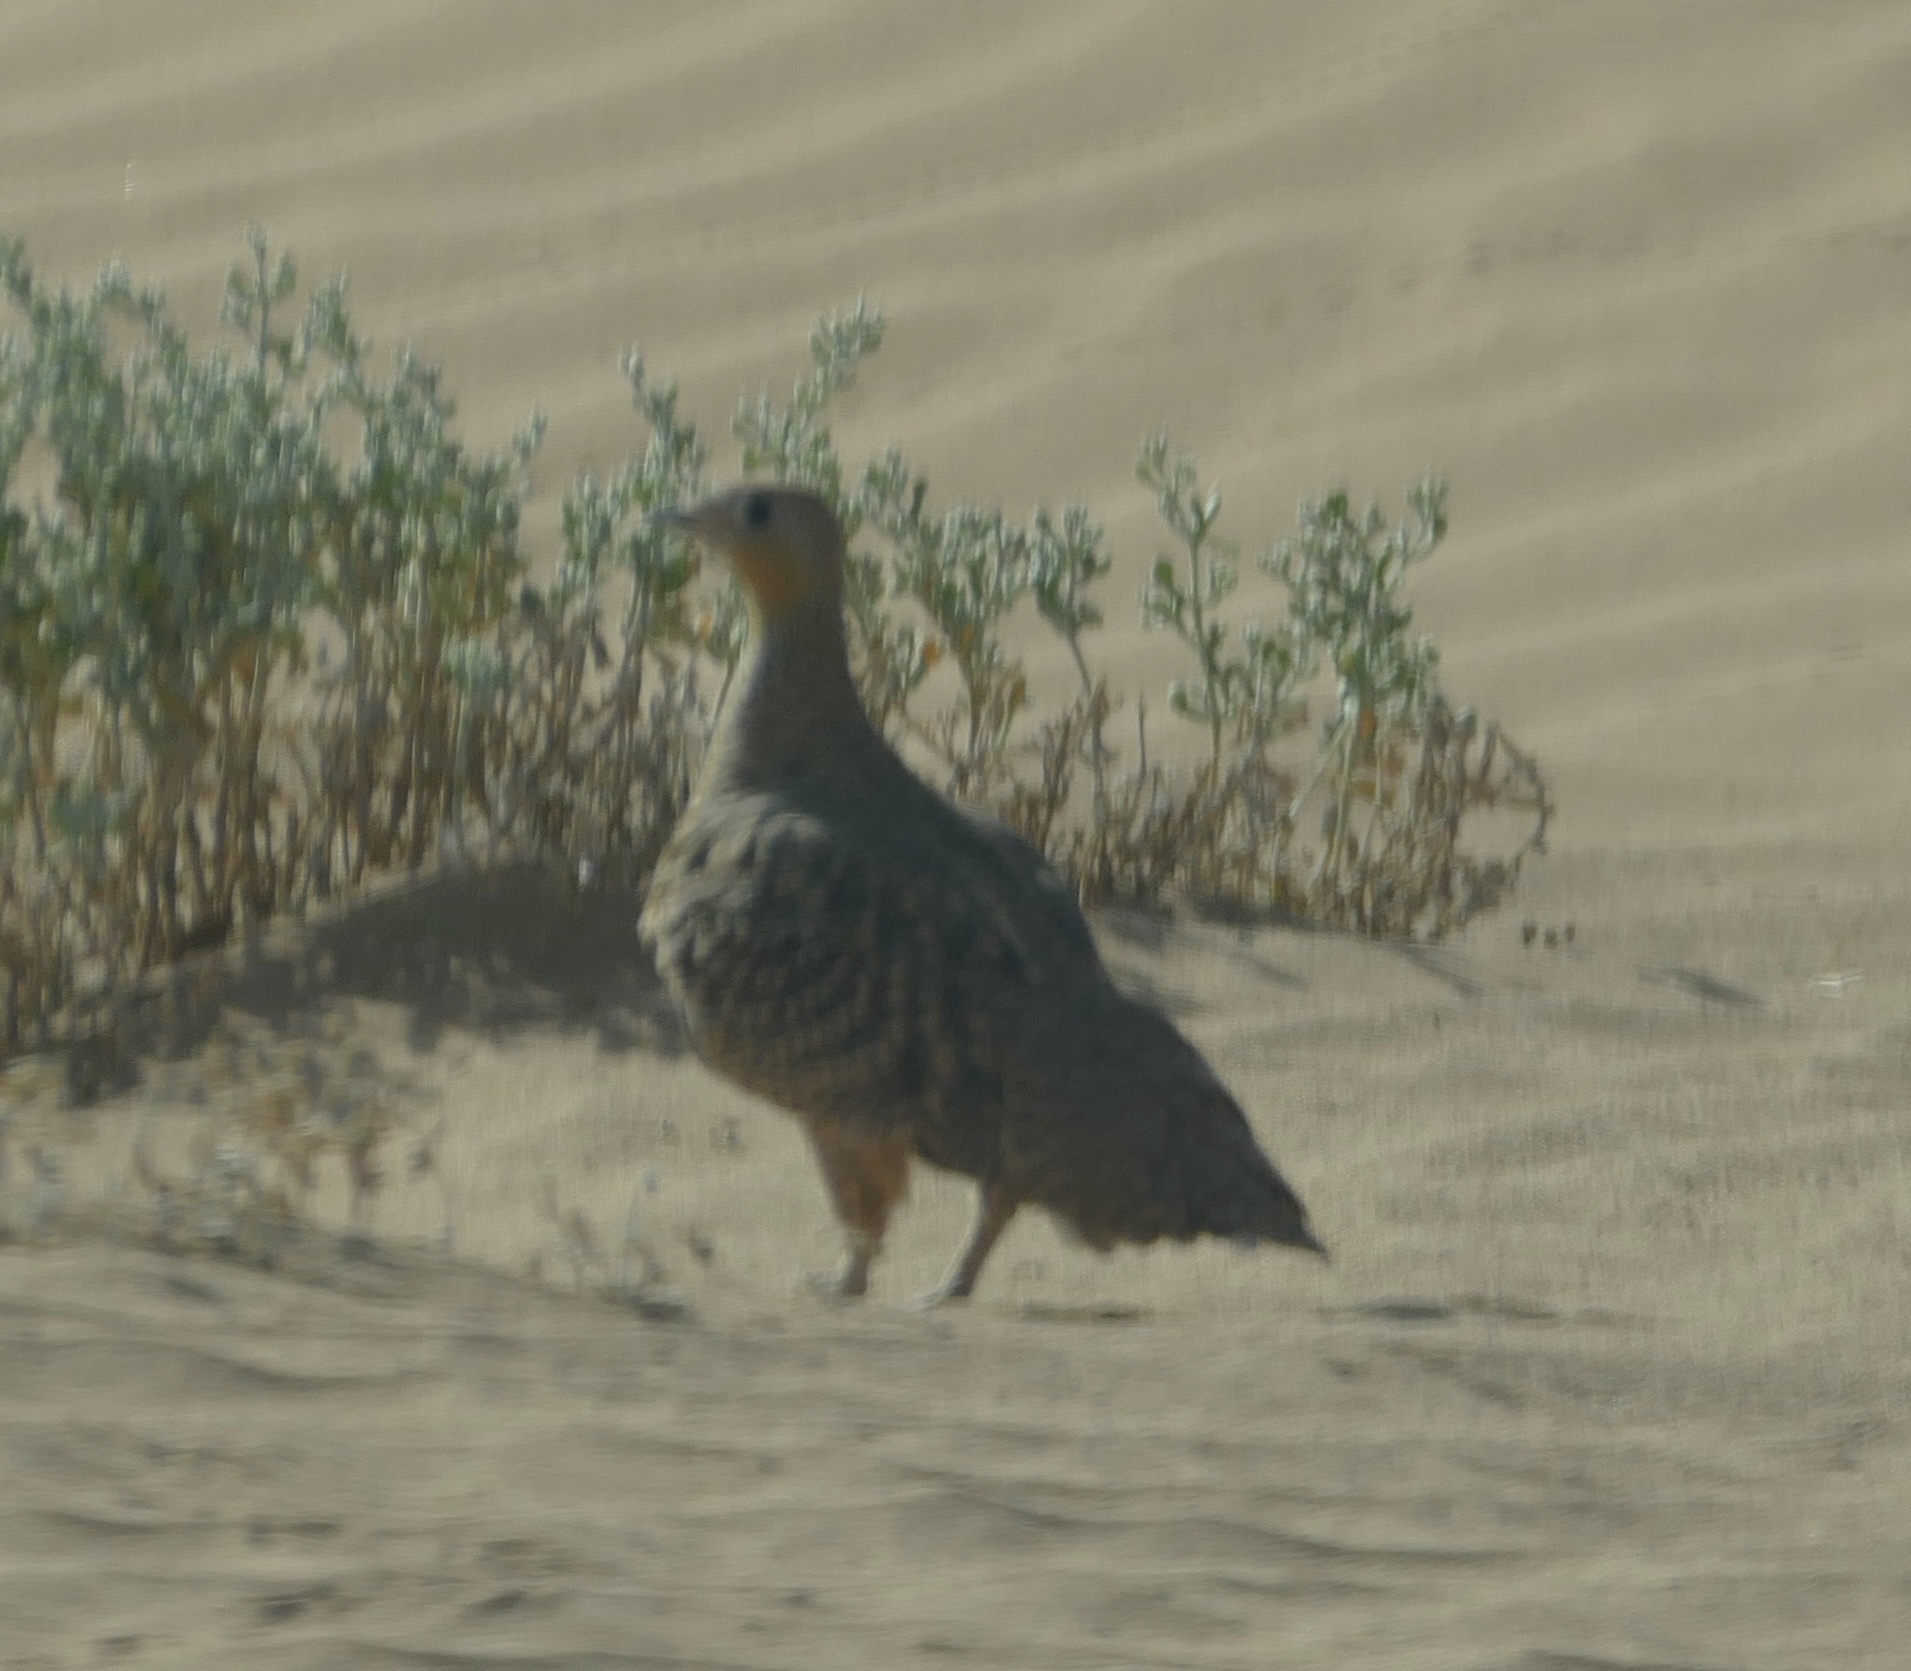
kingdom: Animalia
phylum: Chordata
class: Aves
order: Pteroclidiformes
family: Pteroclididae
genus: Pterocles
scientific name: Pterocles senegallus
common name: Spotted sandgrouse
